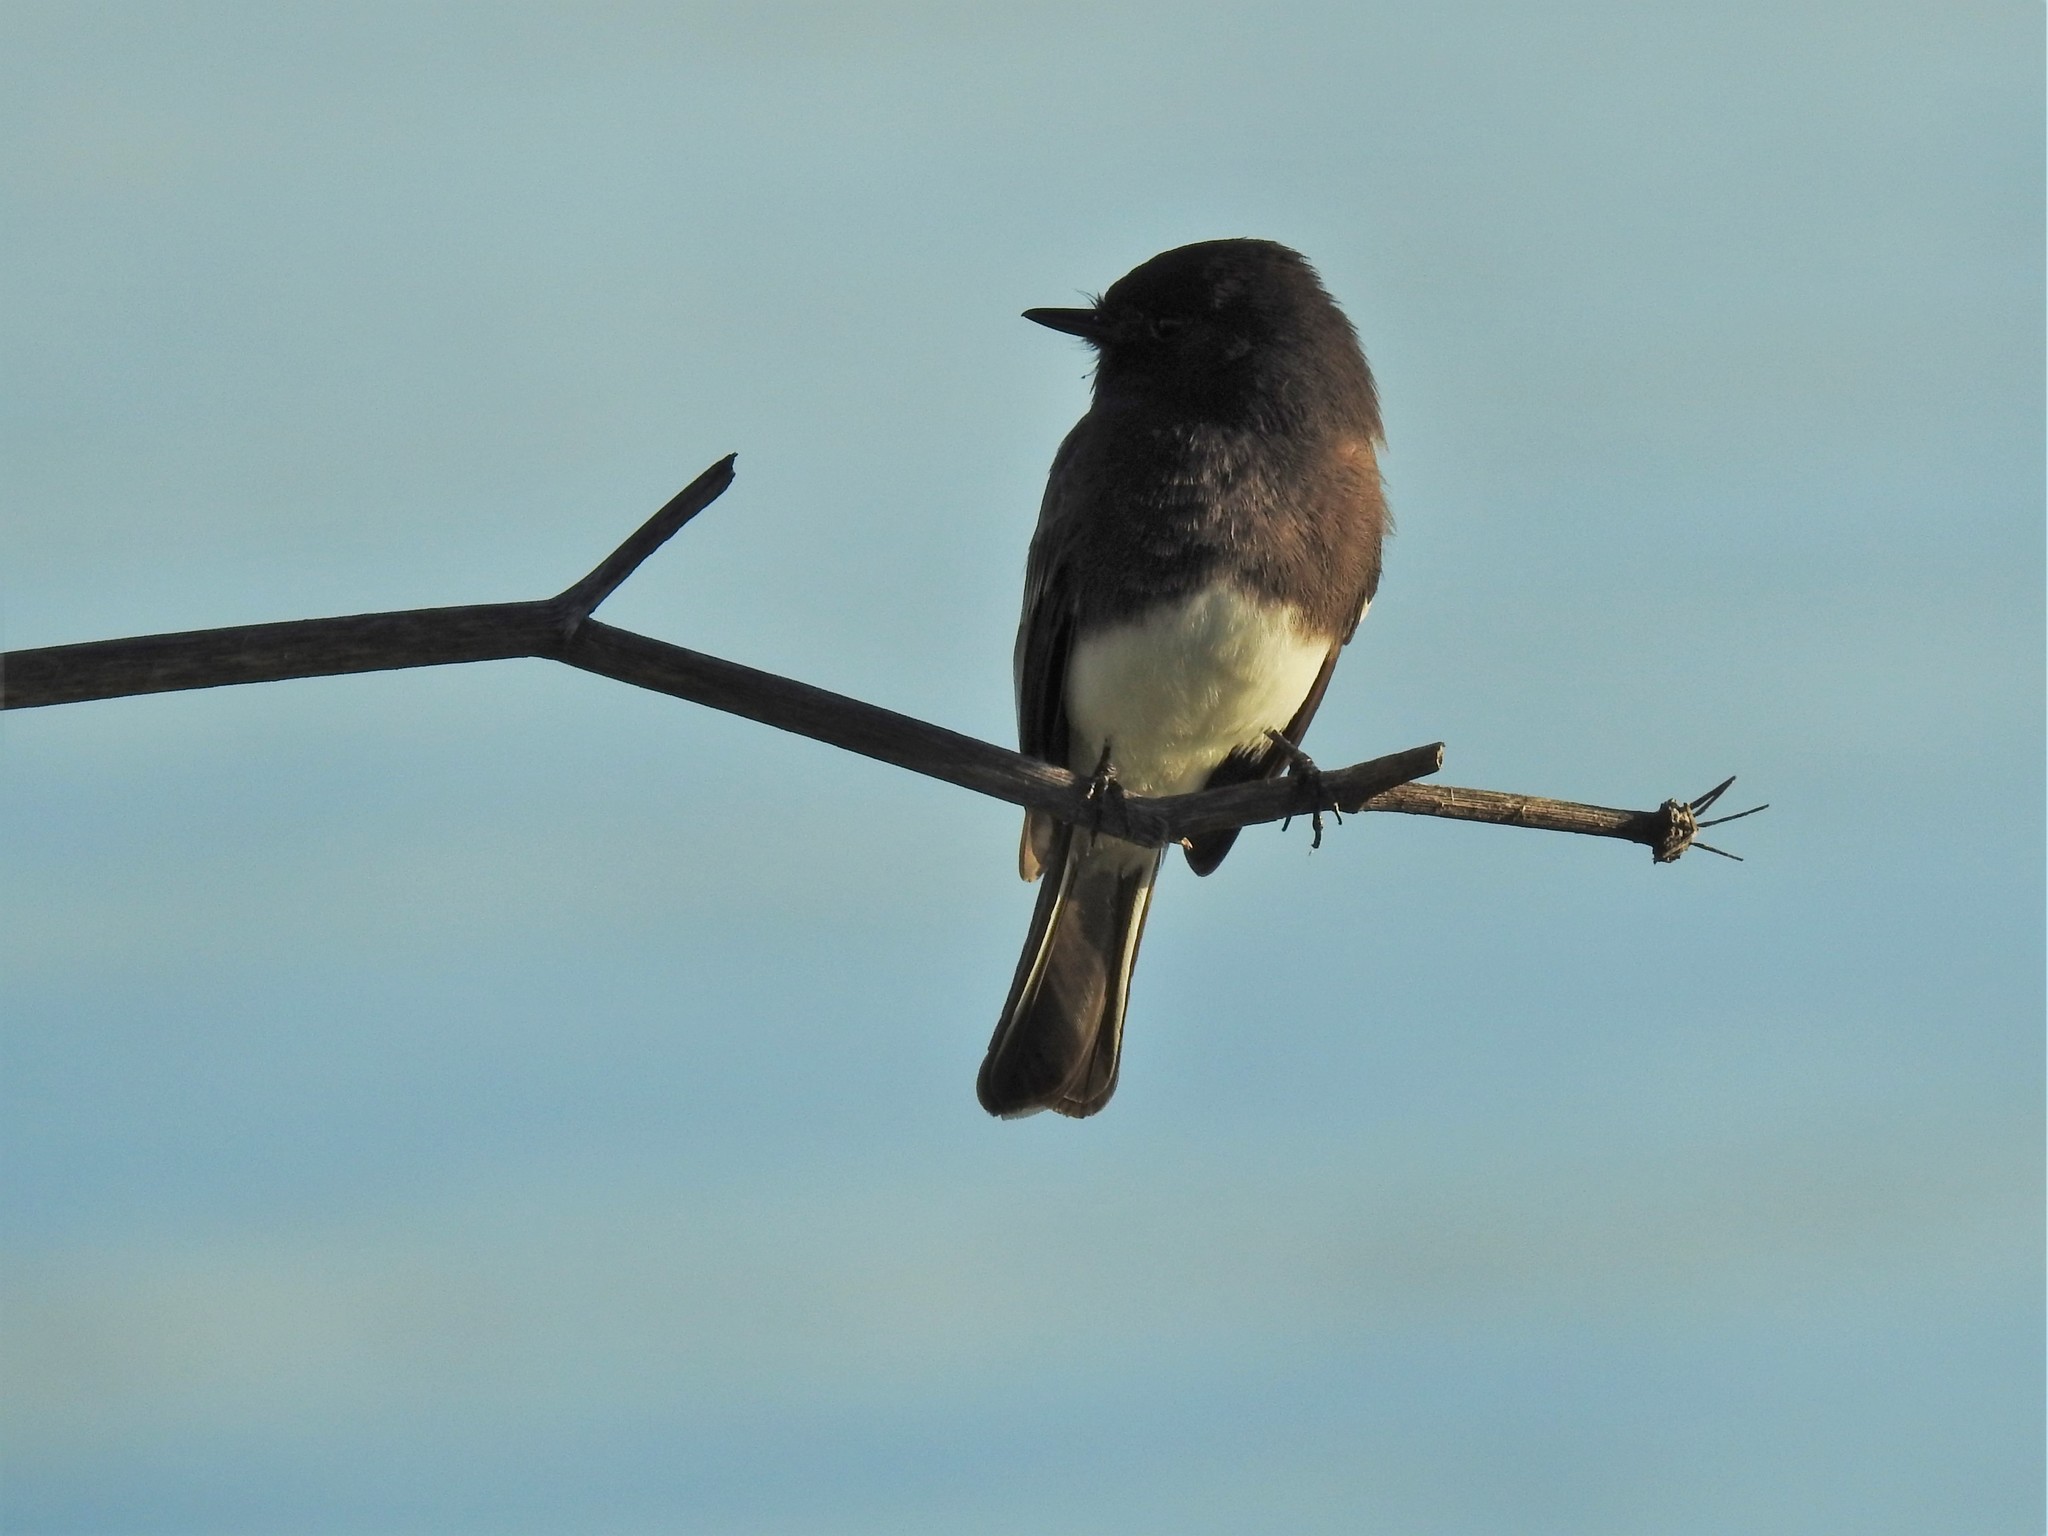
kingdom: Animalia
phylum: Chordata
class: Aves
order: Passeriformes
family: Tyrannidae
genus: Sayornis
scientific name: Sayornis nigricans
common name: Black phoebe
